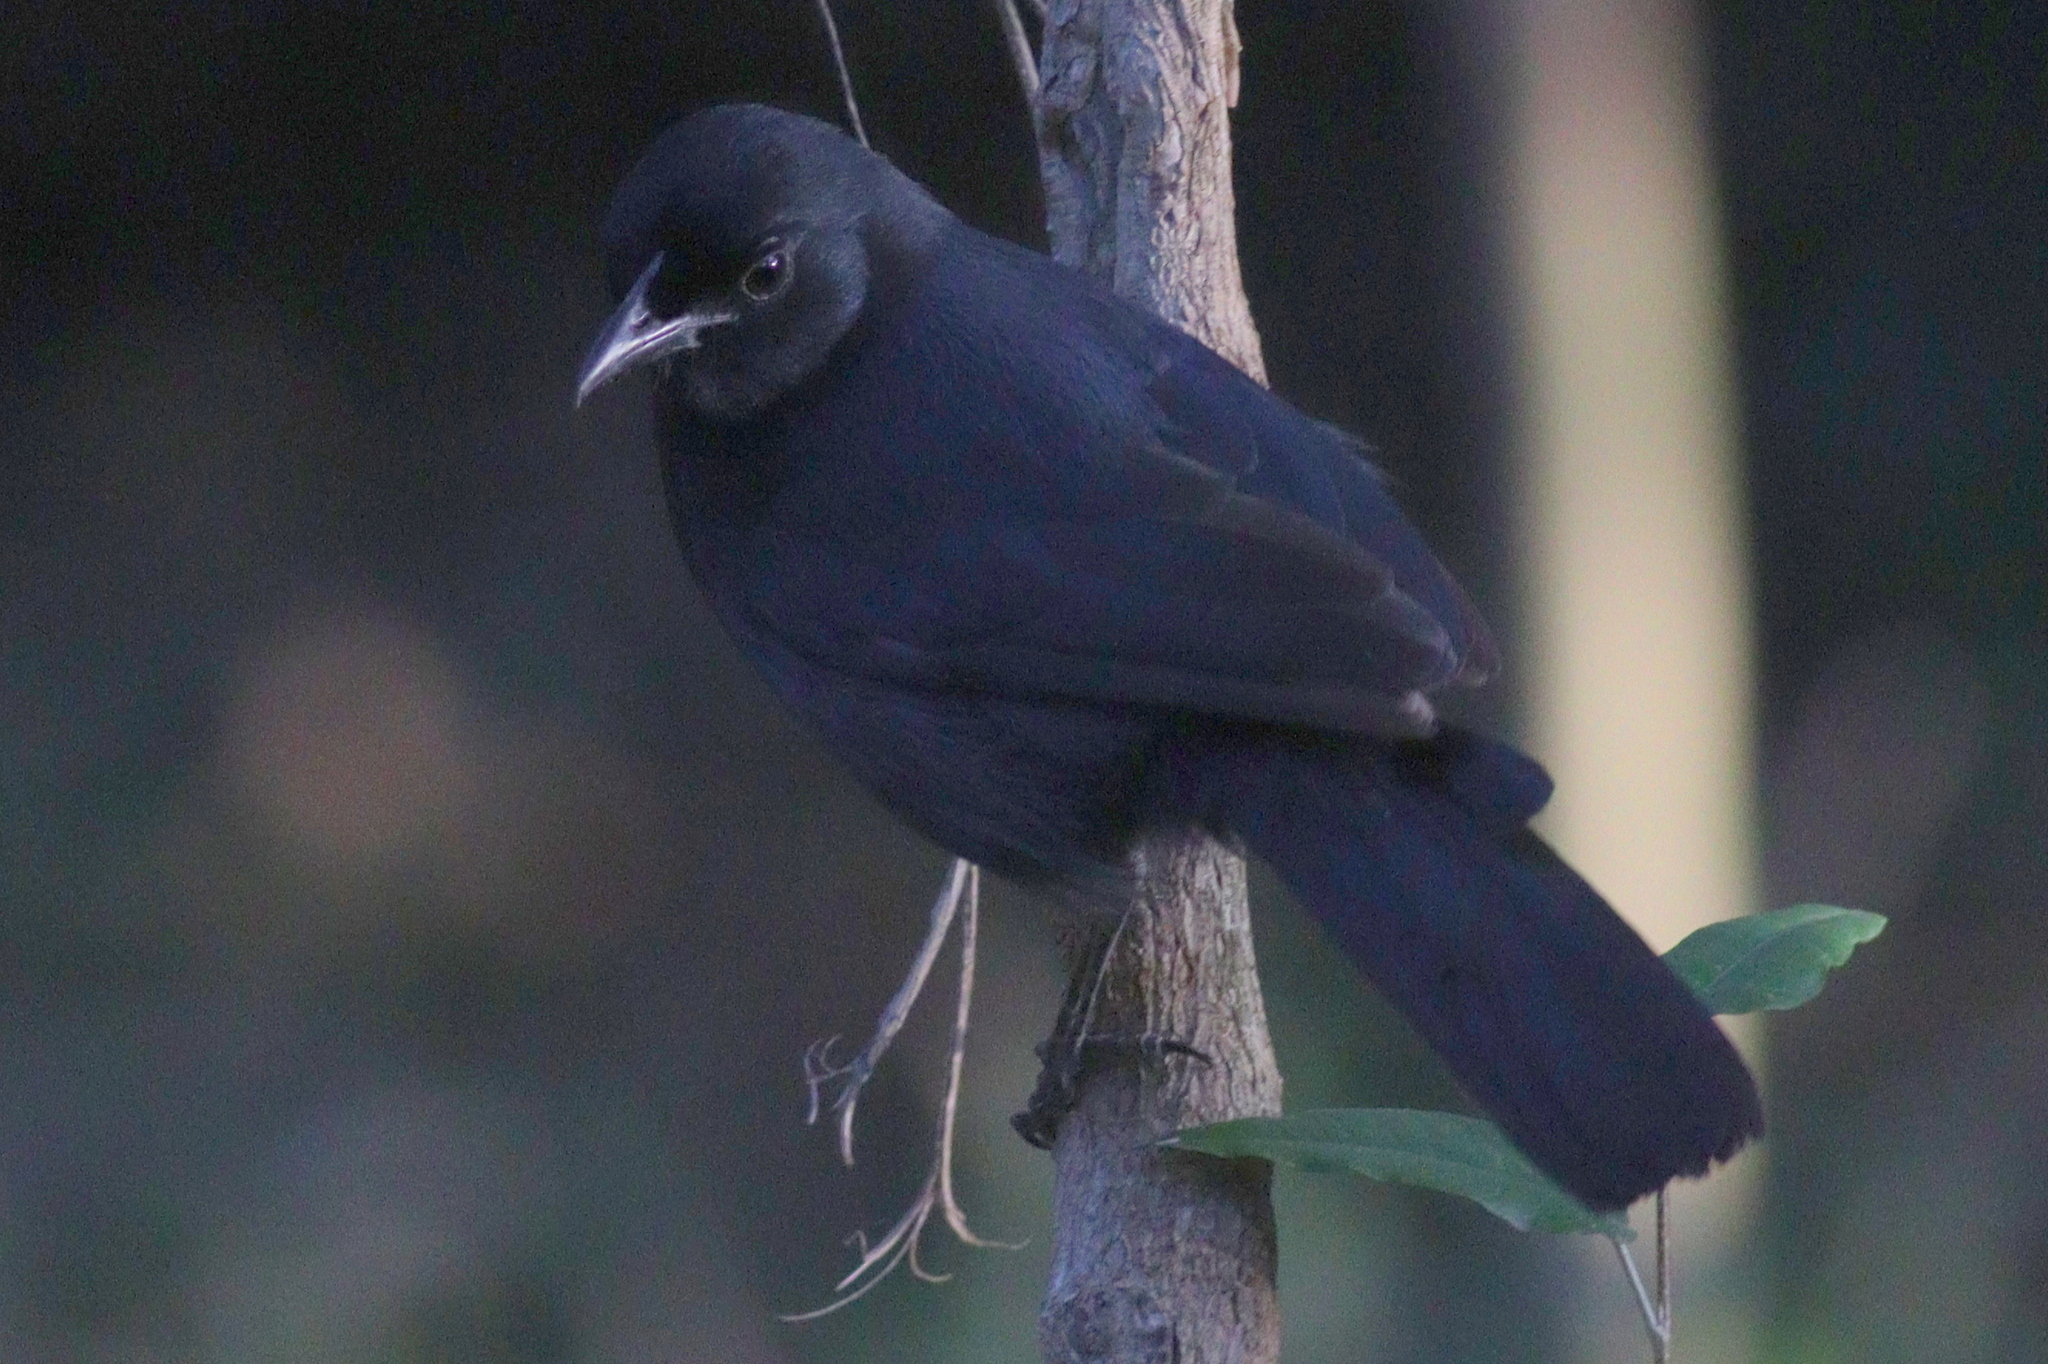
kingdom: Animalia
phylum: Chordata
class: Aves
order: Passeriformes
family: Malaconotidae
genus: Laniarius
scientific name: Laniarius funebris
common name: Slate-colored boubou
